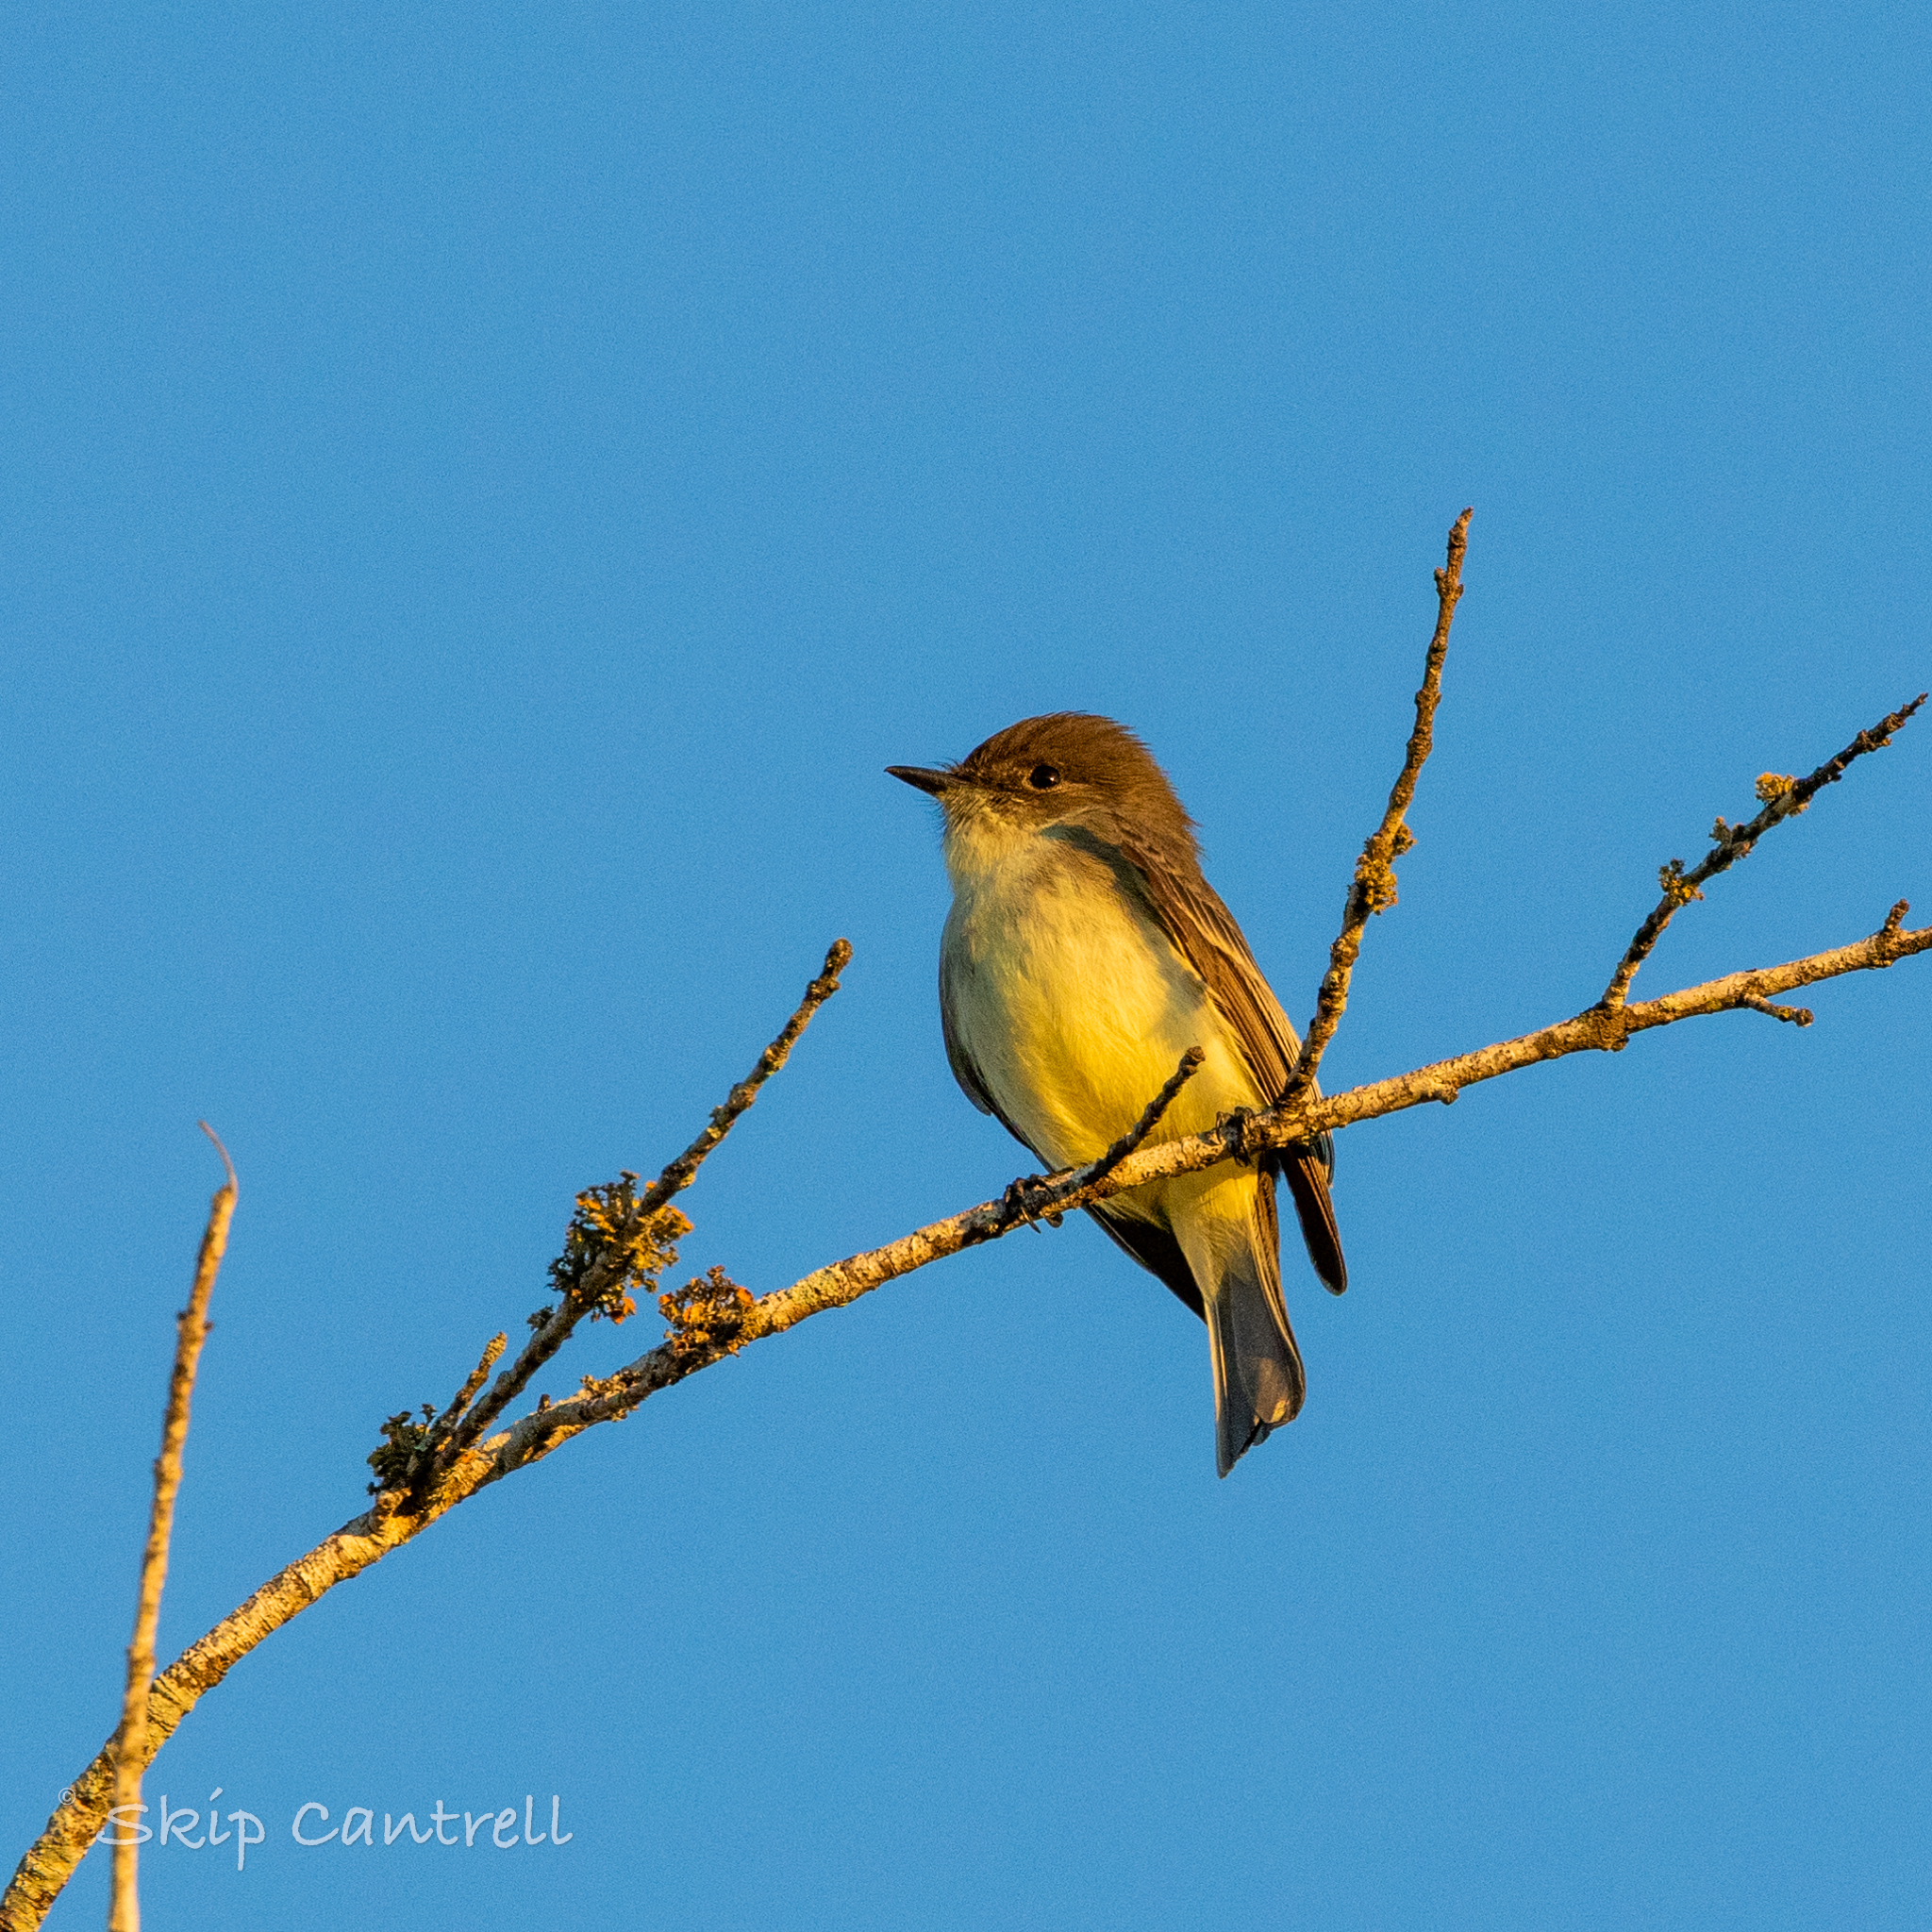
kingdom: Animalia
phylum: Chordata
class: Aves
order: Passeriformes
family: Tyrannidae
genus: Sayornis
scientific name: Sayornis phoebe
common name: Eastern phoebe
